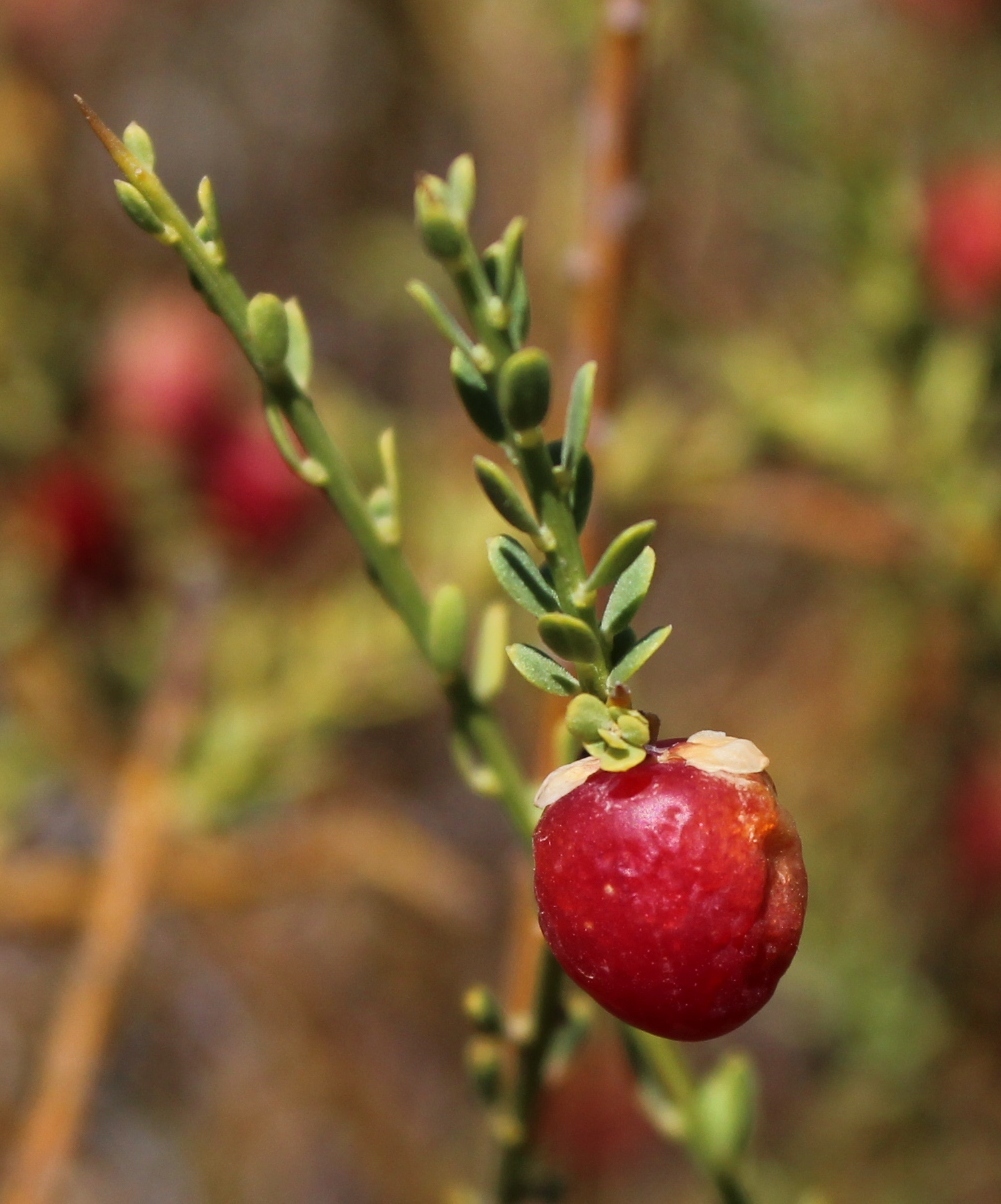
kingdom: Plantae
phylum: Tracheophyta
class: Magnoliopsida
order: Fabales
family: Polygalaceae
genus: Muraltia
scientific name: Muraltia spinosa
